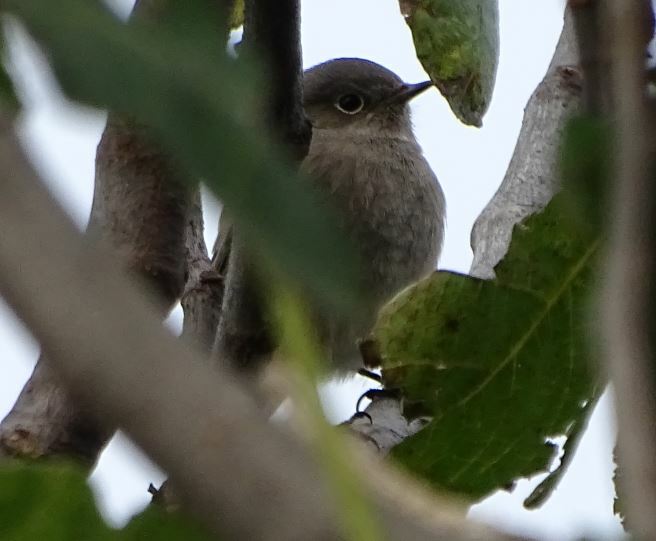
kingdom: Animalia
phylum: Chordata
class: Aves
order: Passeriformes
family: Muscicapidae
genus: Phoenicurus
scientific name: Phoenicurus ochruros
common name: Black redstart
